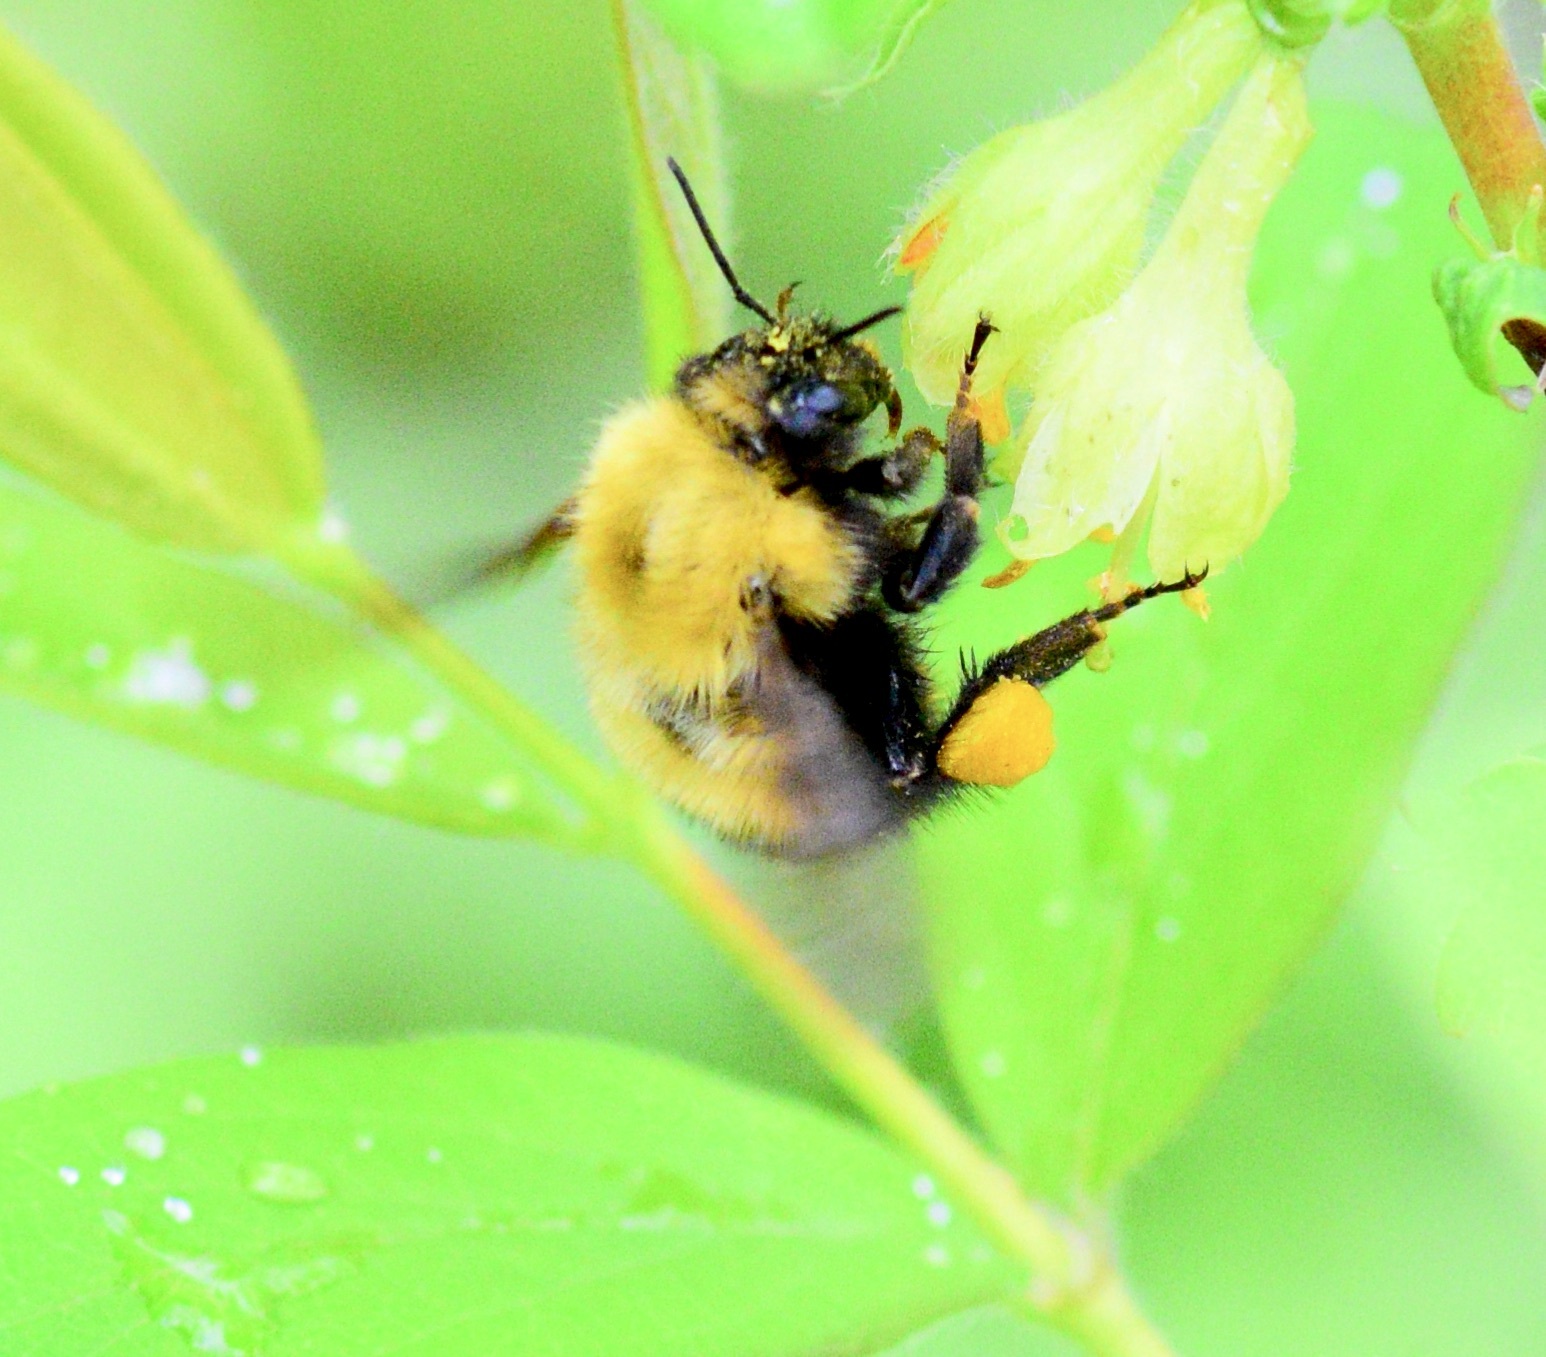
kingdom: Animalia
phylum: Arthropoda
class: Insecta
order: Hymenoptera
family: Apidae
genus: Bombus
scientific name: Bombus perplexus
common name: Confusing bumble bee
